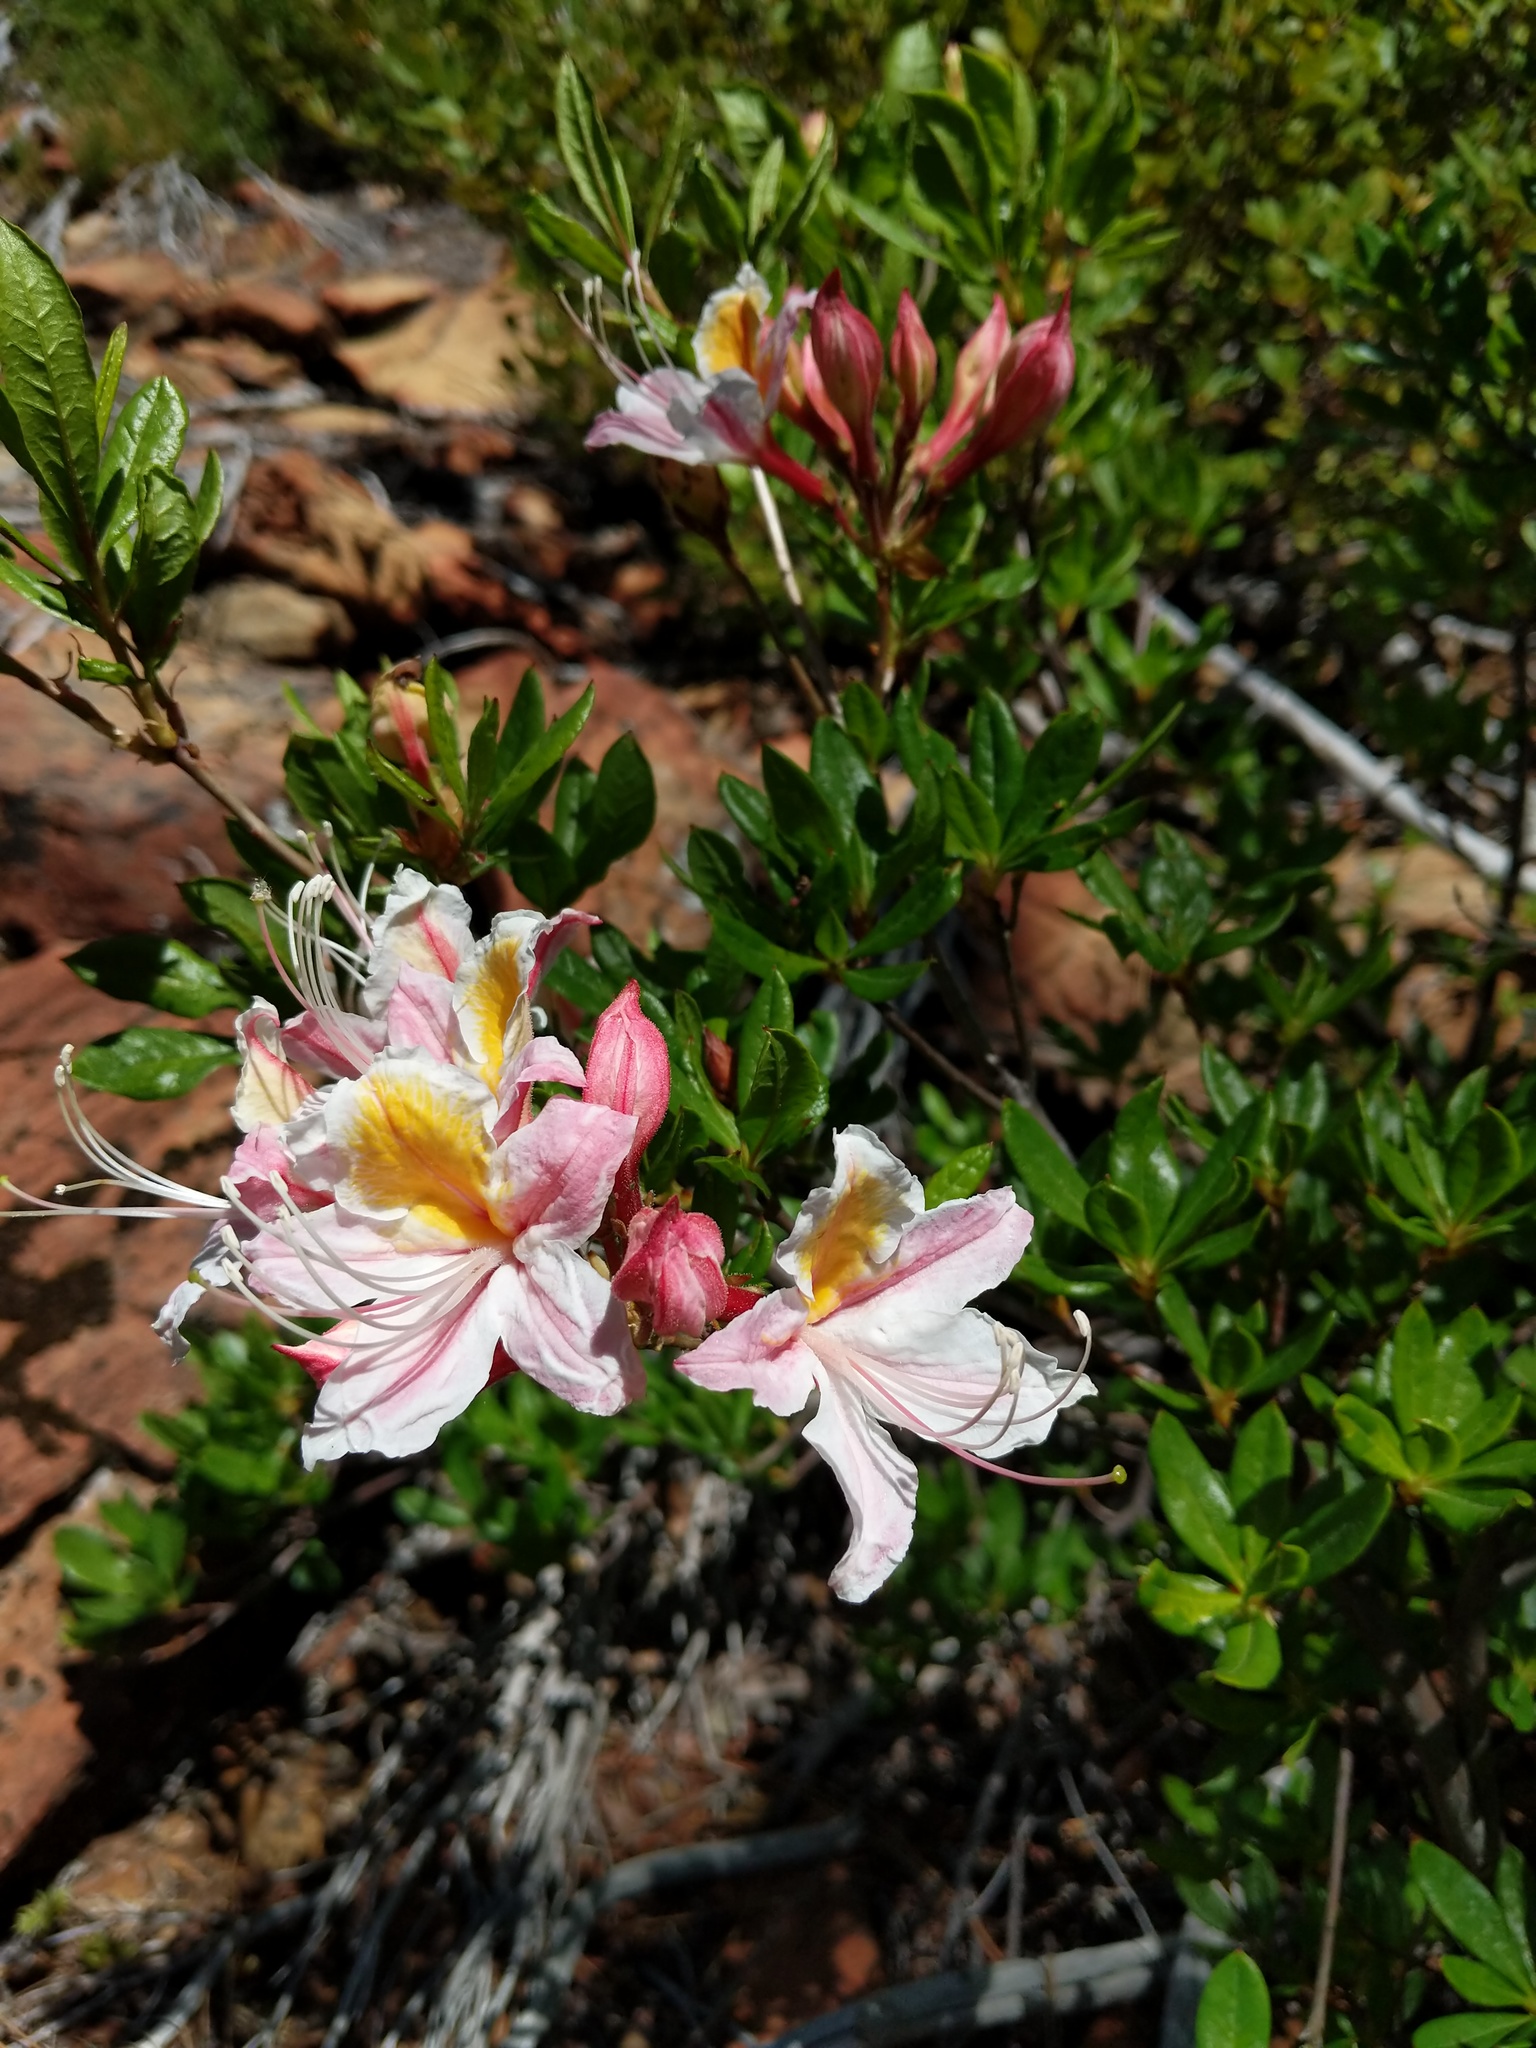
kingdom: Plantae
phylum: Tracheophyta
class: Magnoliopsida
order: Ericales
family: Ericaceae
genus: Rhododendron
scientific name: Rhododendron occidentale
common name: Western azalea
